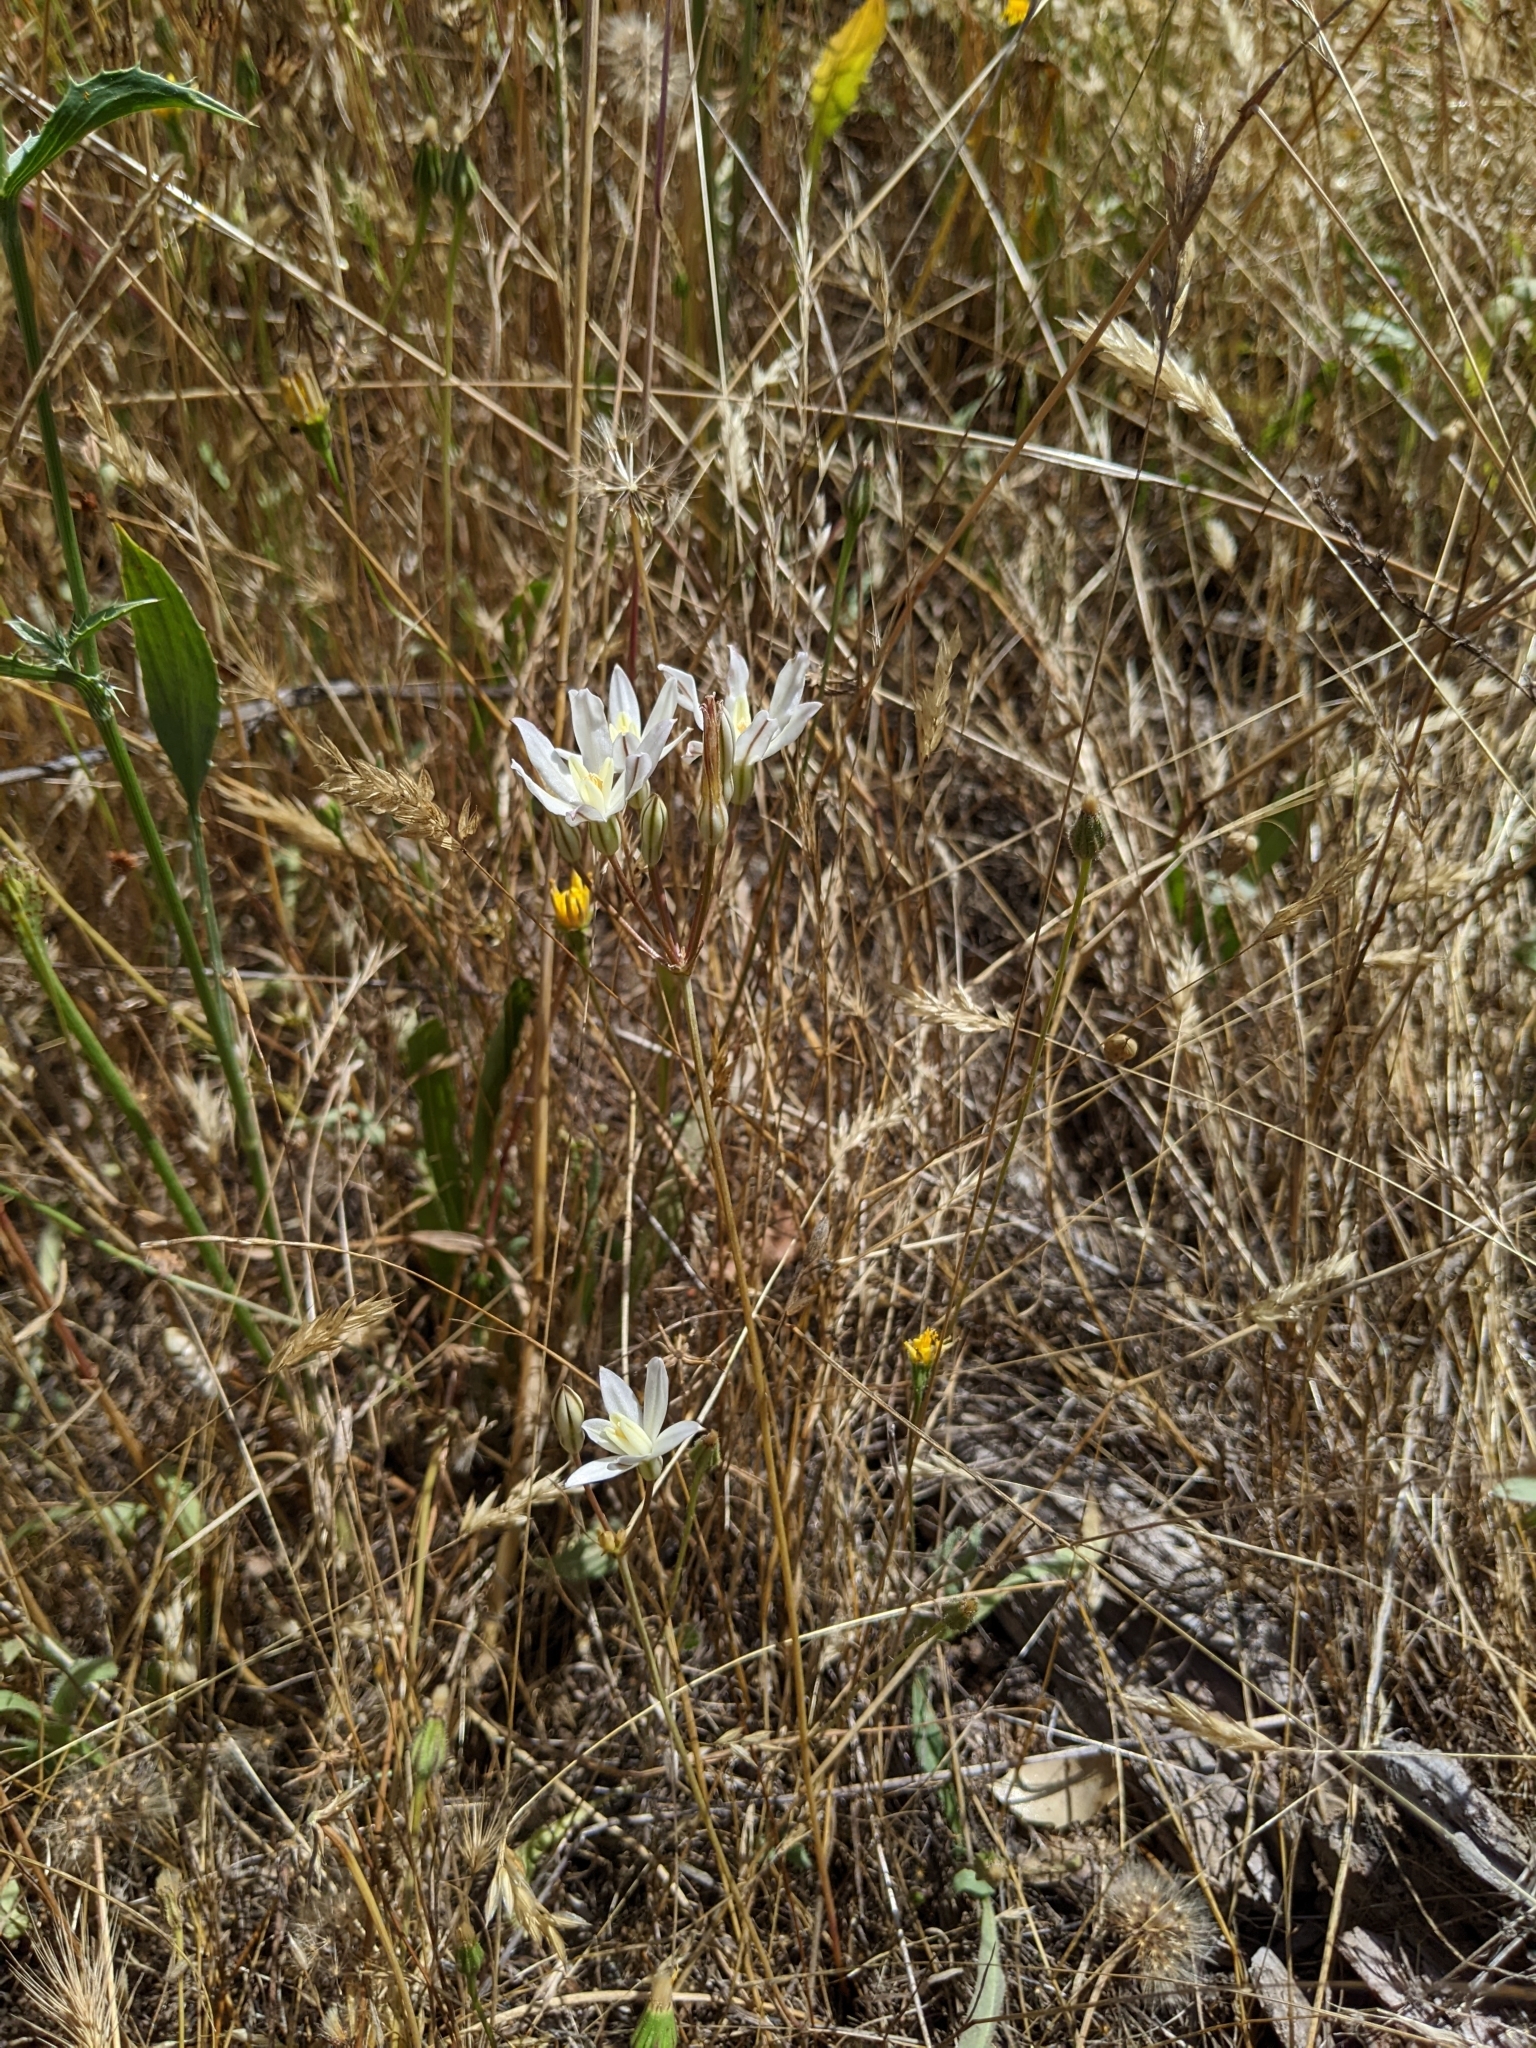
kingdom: Plantae
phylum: Tracheophyta
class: Liliopsida
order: Asparagales
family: Asparagaceae
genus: Brodiaea
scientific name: Brodiaea matsonii
